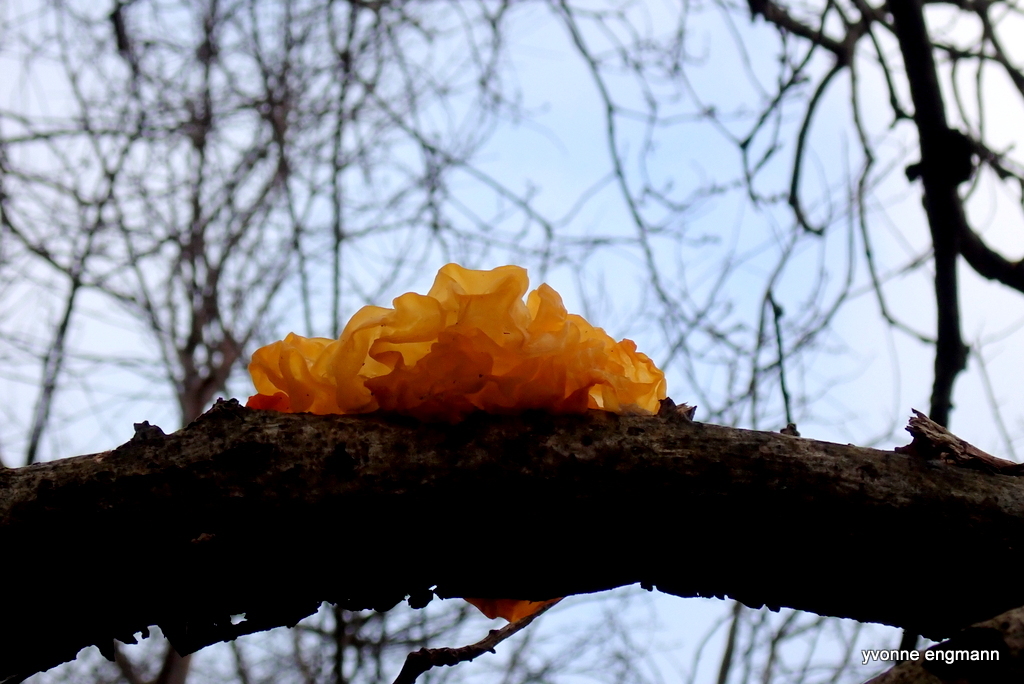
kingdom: Fungi
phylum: Basidiomycota
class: Tremellomycetes
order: Tremellales
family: Tremellaceae
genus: Tremella
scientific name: Tremella mesenterica
